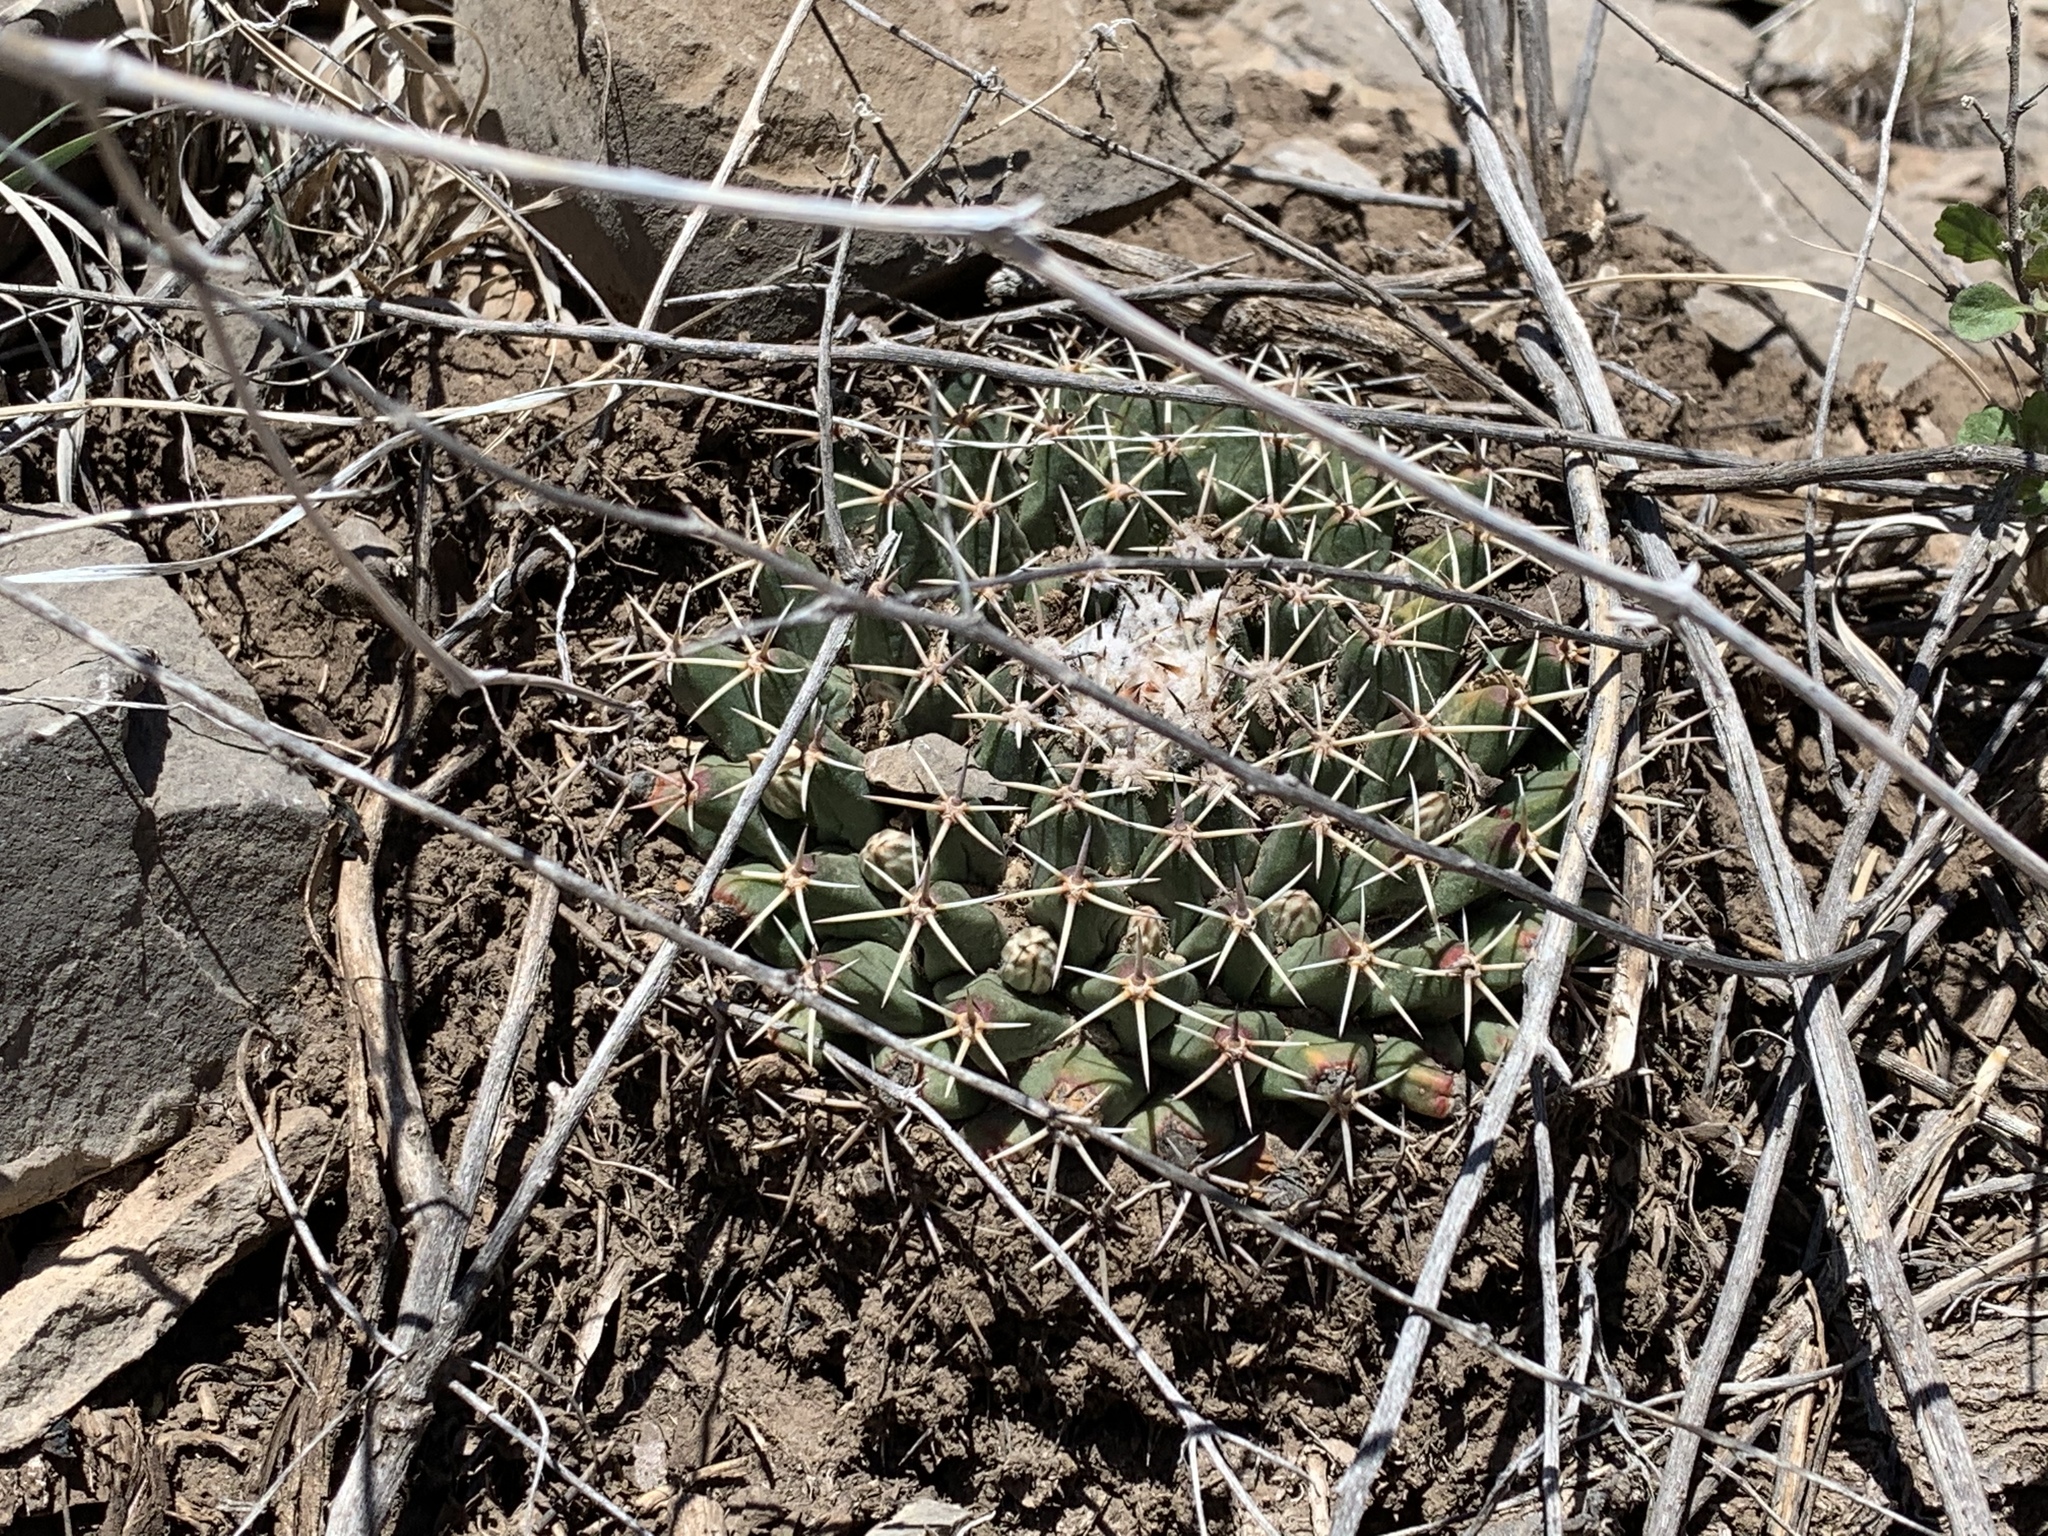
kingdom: Plantae
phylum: Tracheophyta
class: Magnoliopsida
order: Caryophyllales
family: Cactaceae
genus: Mammillaria
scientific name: Mammillaria heyderi
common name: Little nipple cactus
